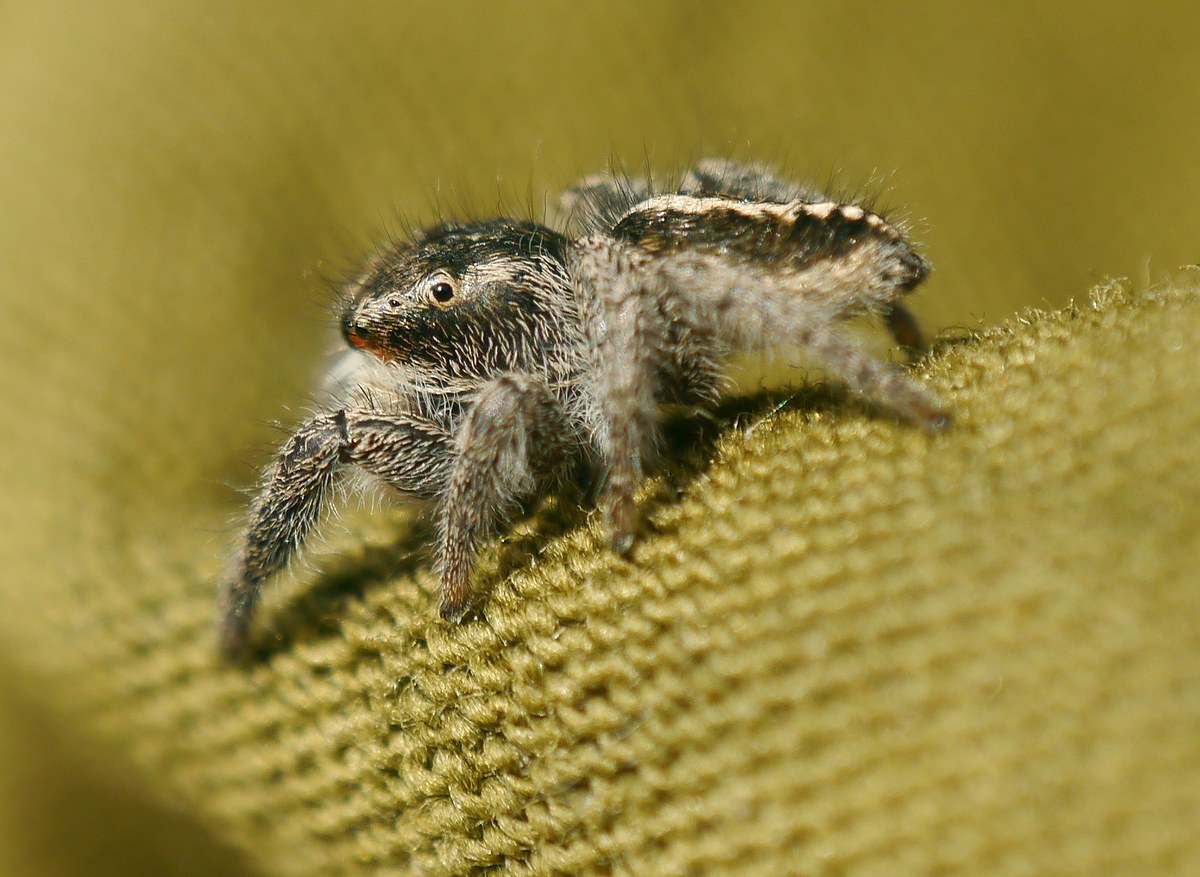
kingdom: Animalia
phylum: Arthropoda
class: Arachnida
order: Araneae
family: Salticidae
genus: Pellenes
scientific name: Pellenes seriatus
